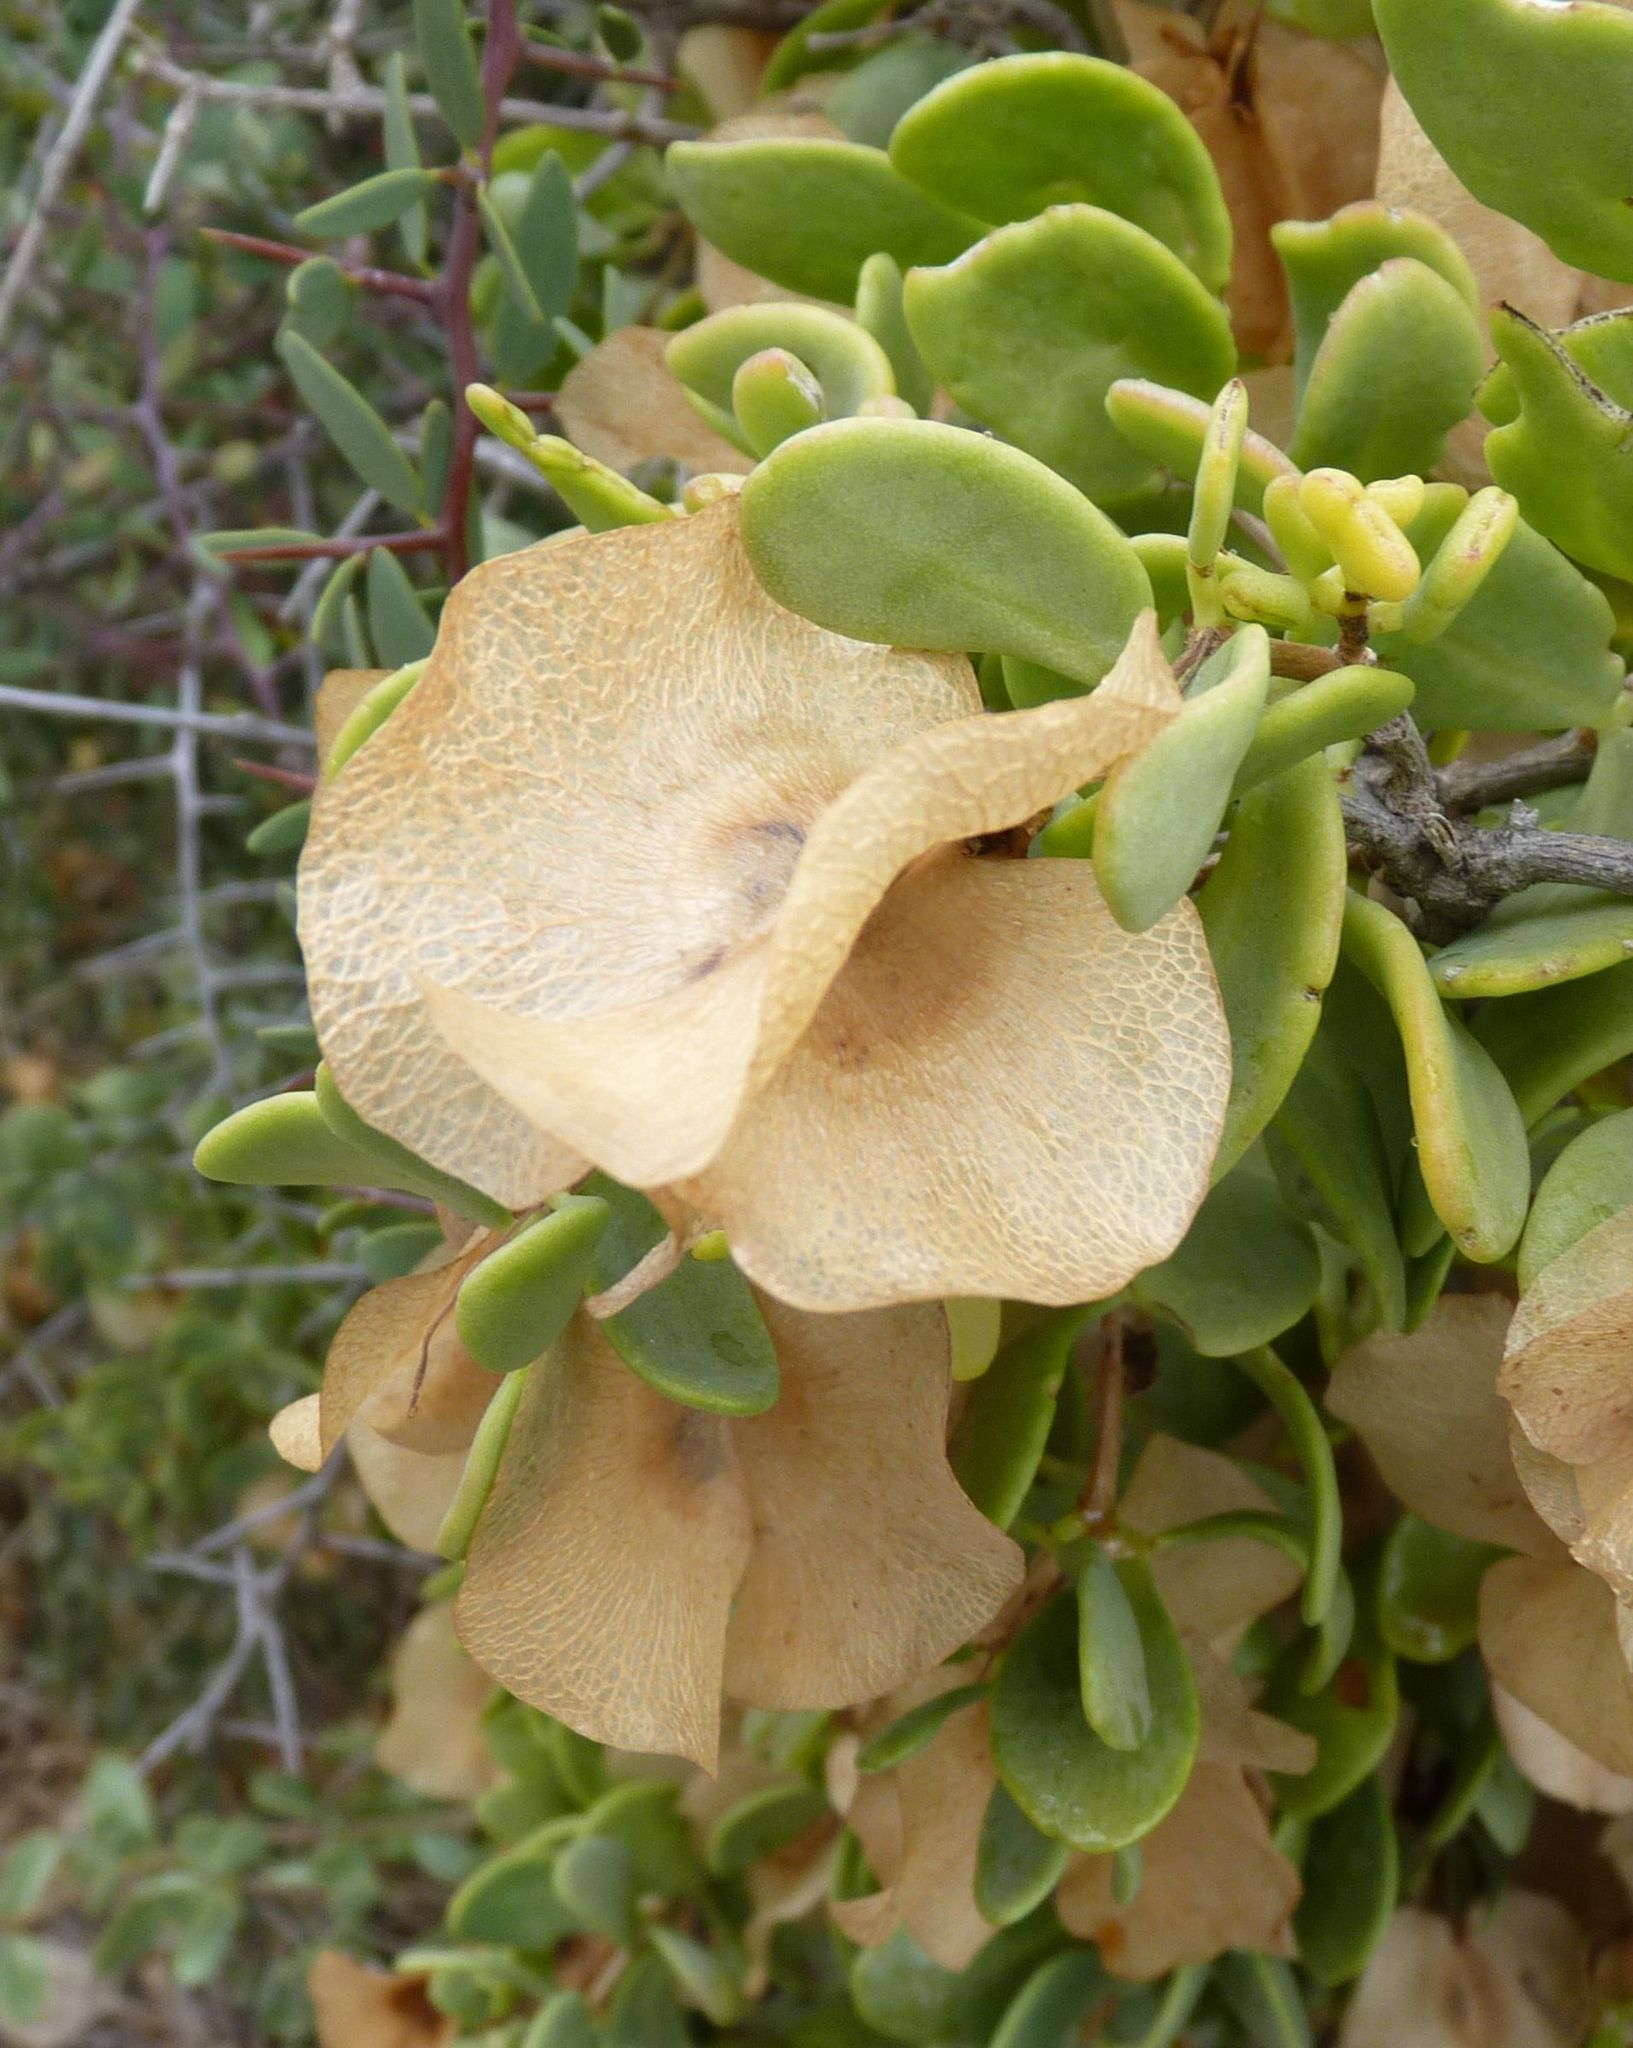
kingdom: Plantae
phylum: Tracheophyta
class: Magnoliopsida
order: Zygophyllales
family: Zygophyllaceae
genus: Roepera
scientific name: Roepera morgsana
